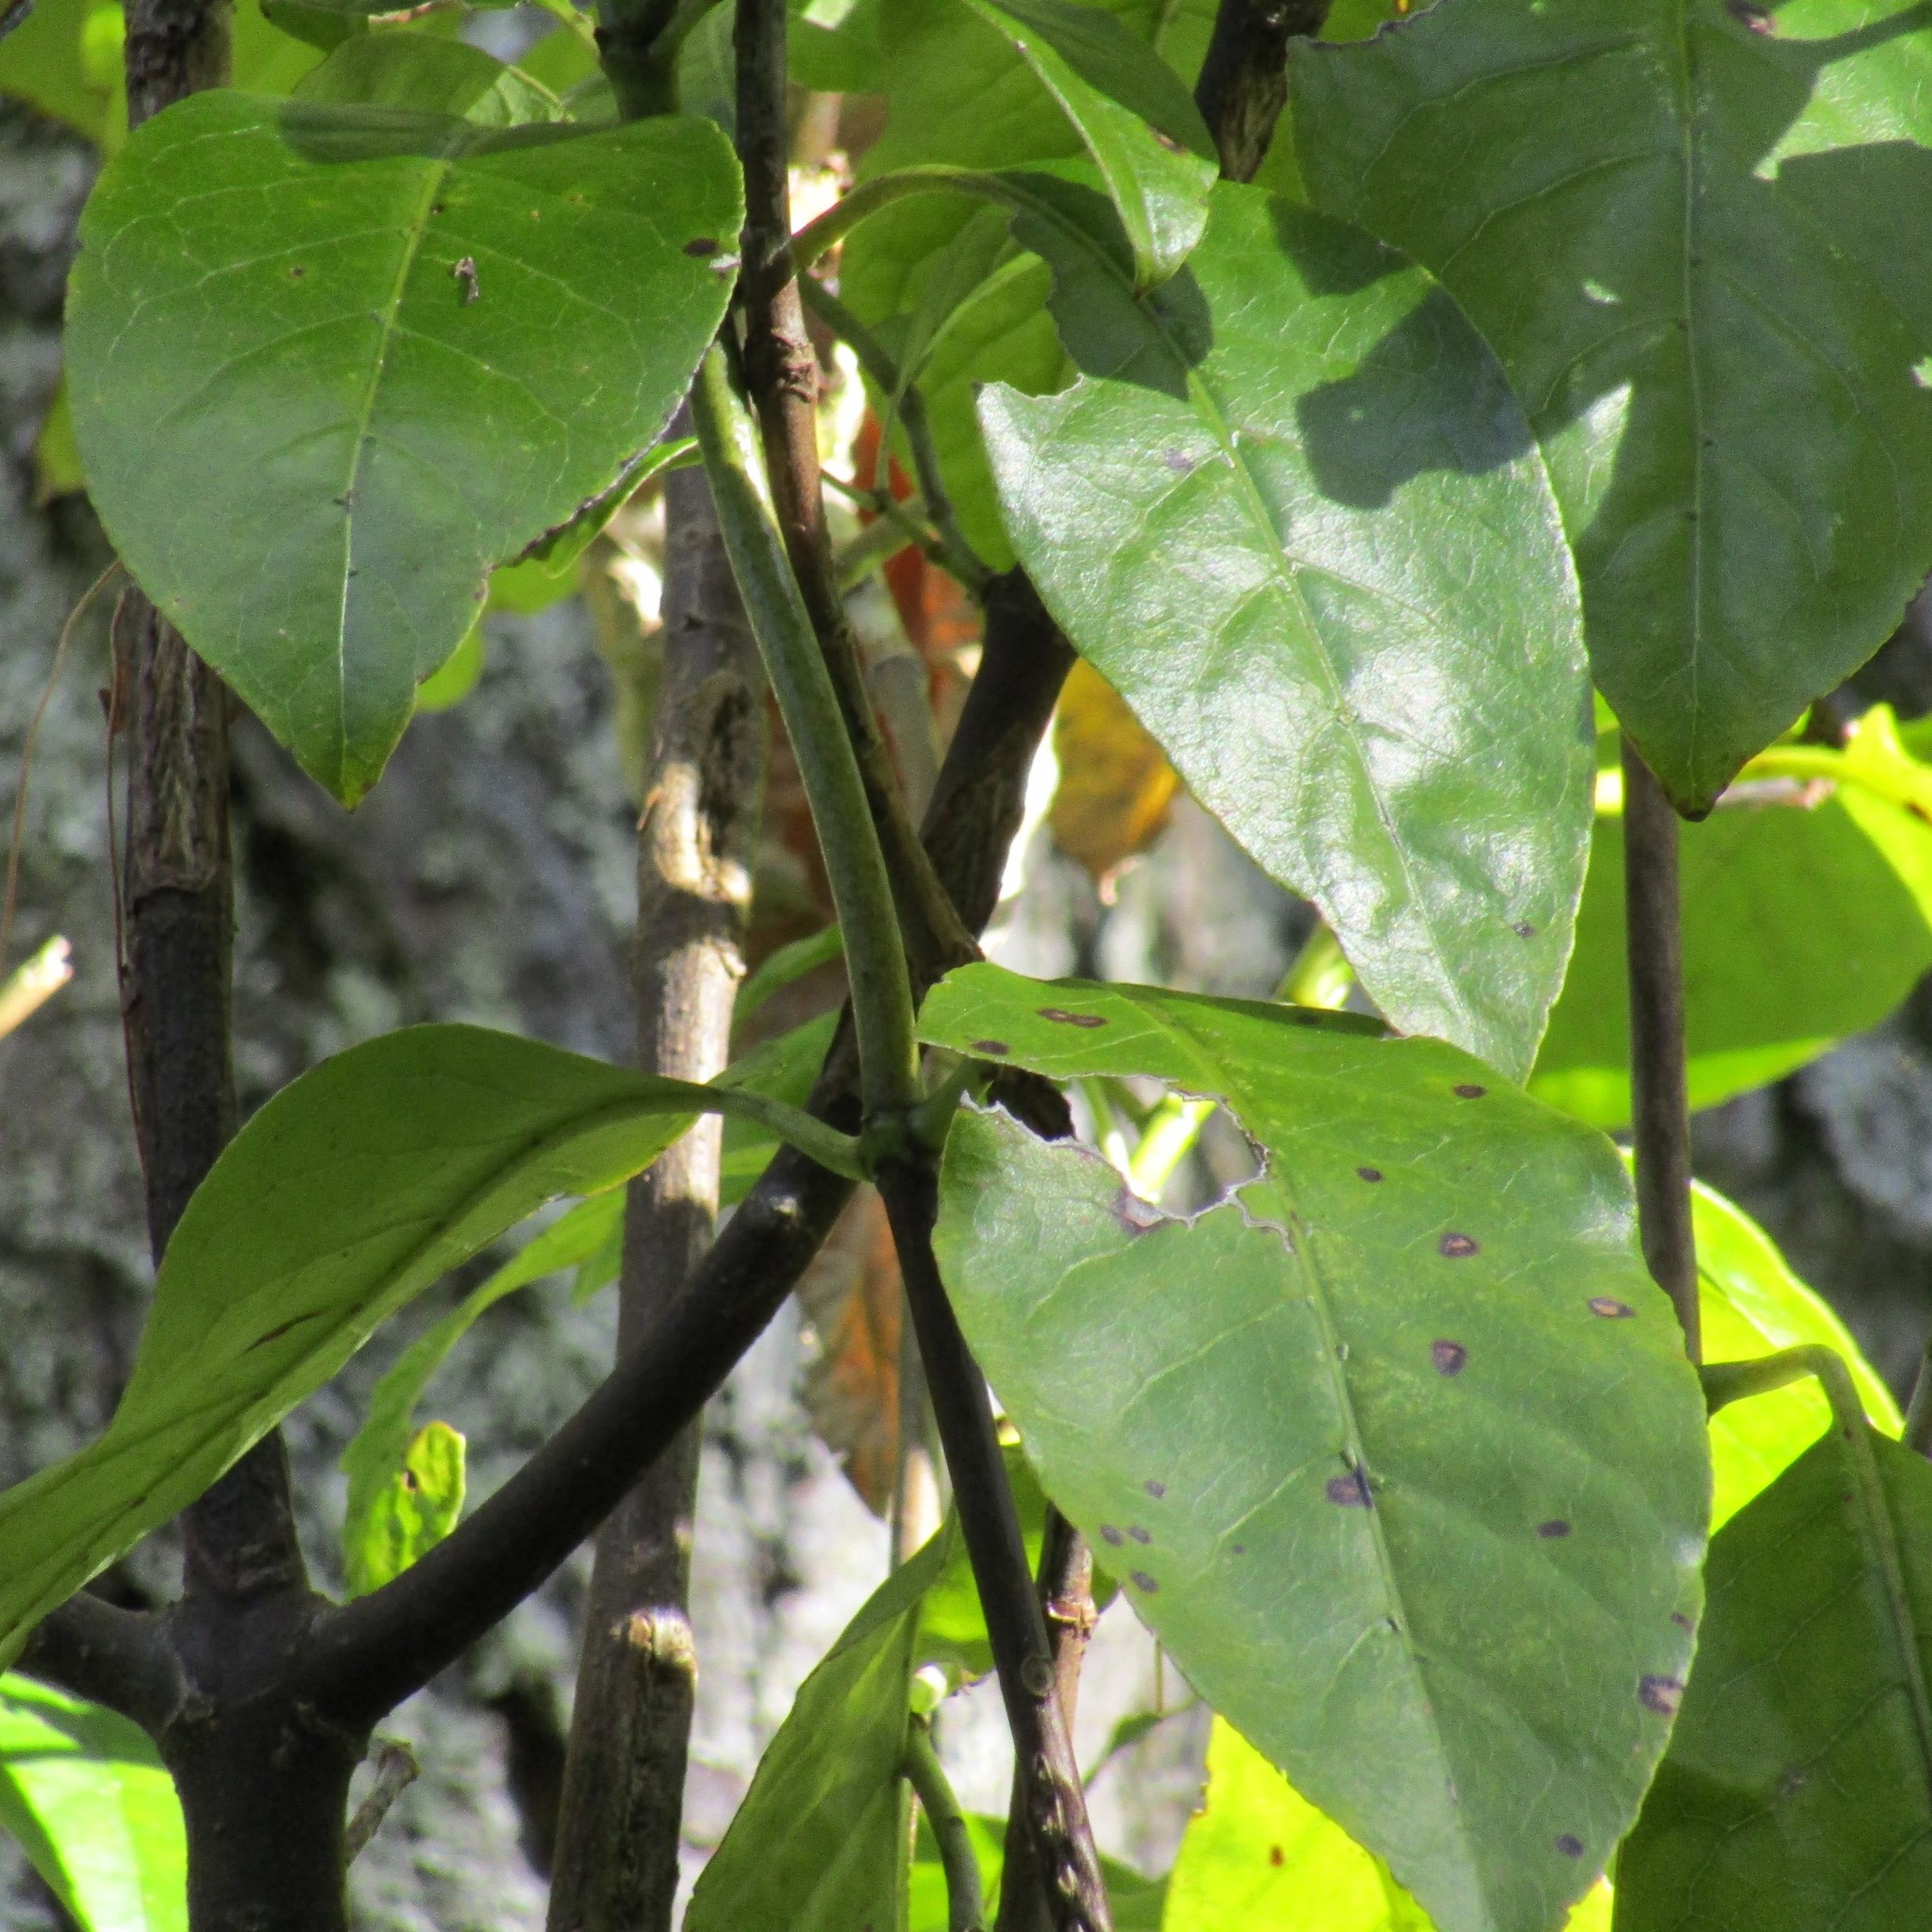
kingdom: Plantae
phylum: Tracheophyta
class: Magnoliopsida
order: Gentianales
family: Rubiaceae
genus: Coprosma
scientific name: Coprosma autumnalis
